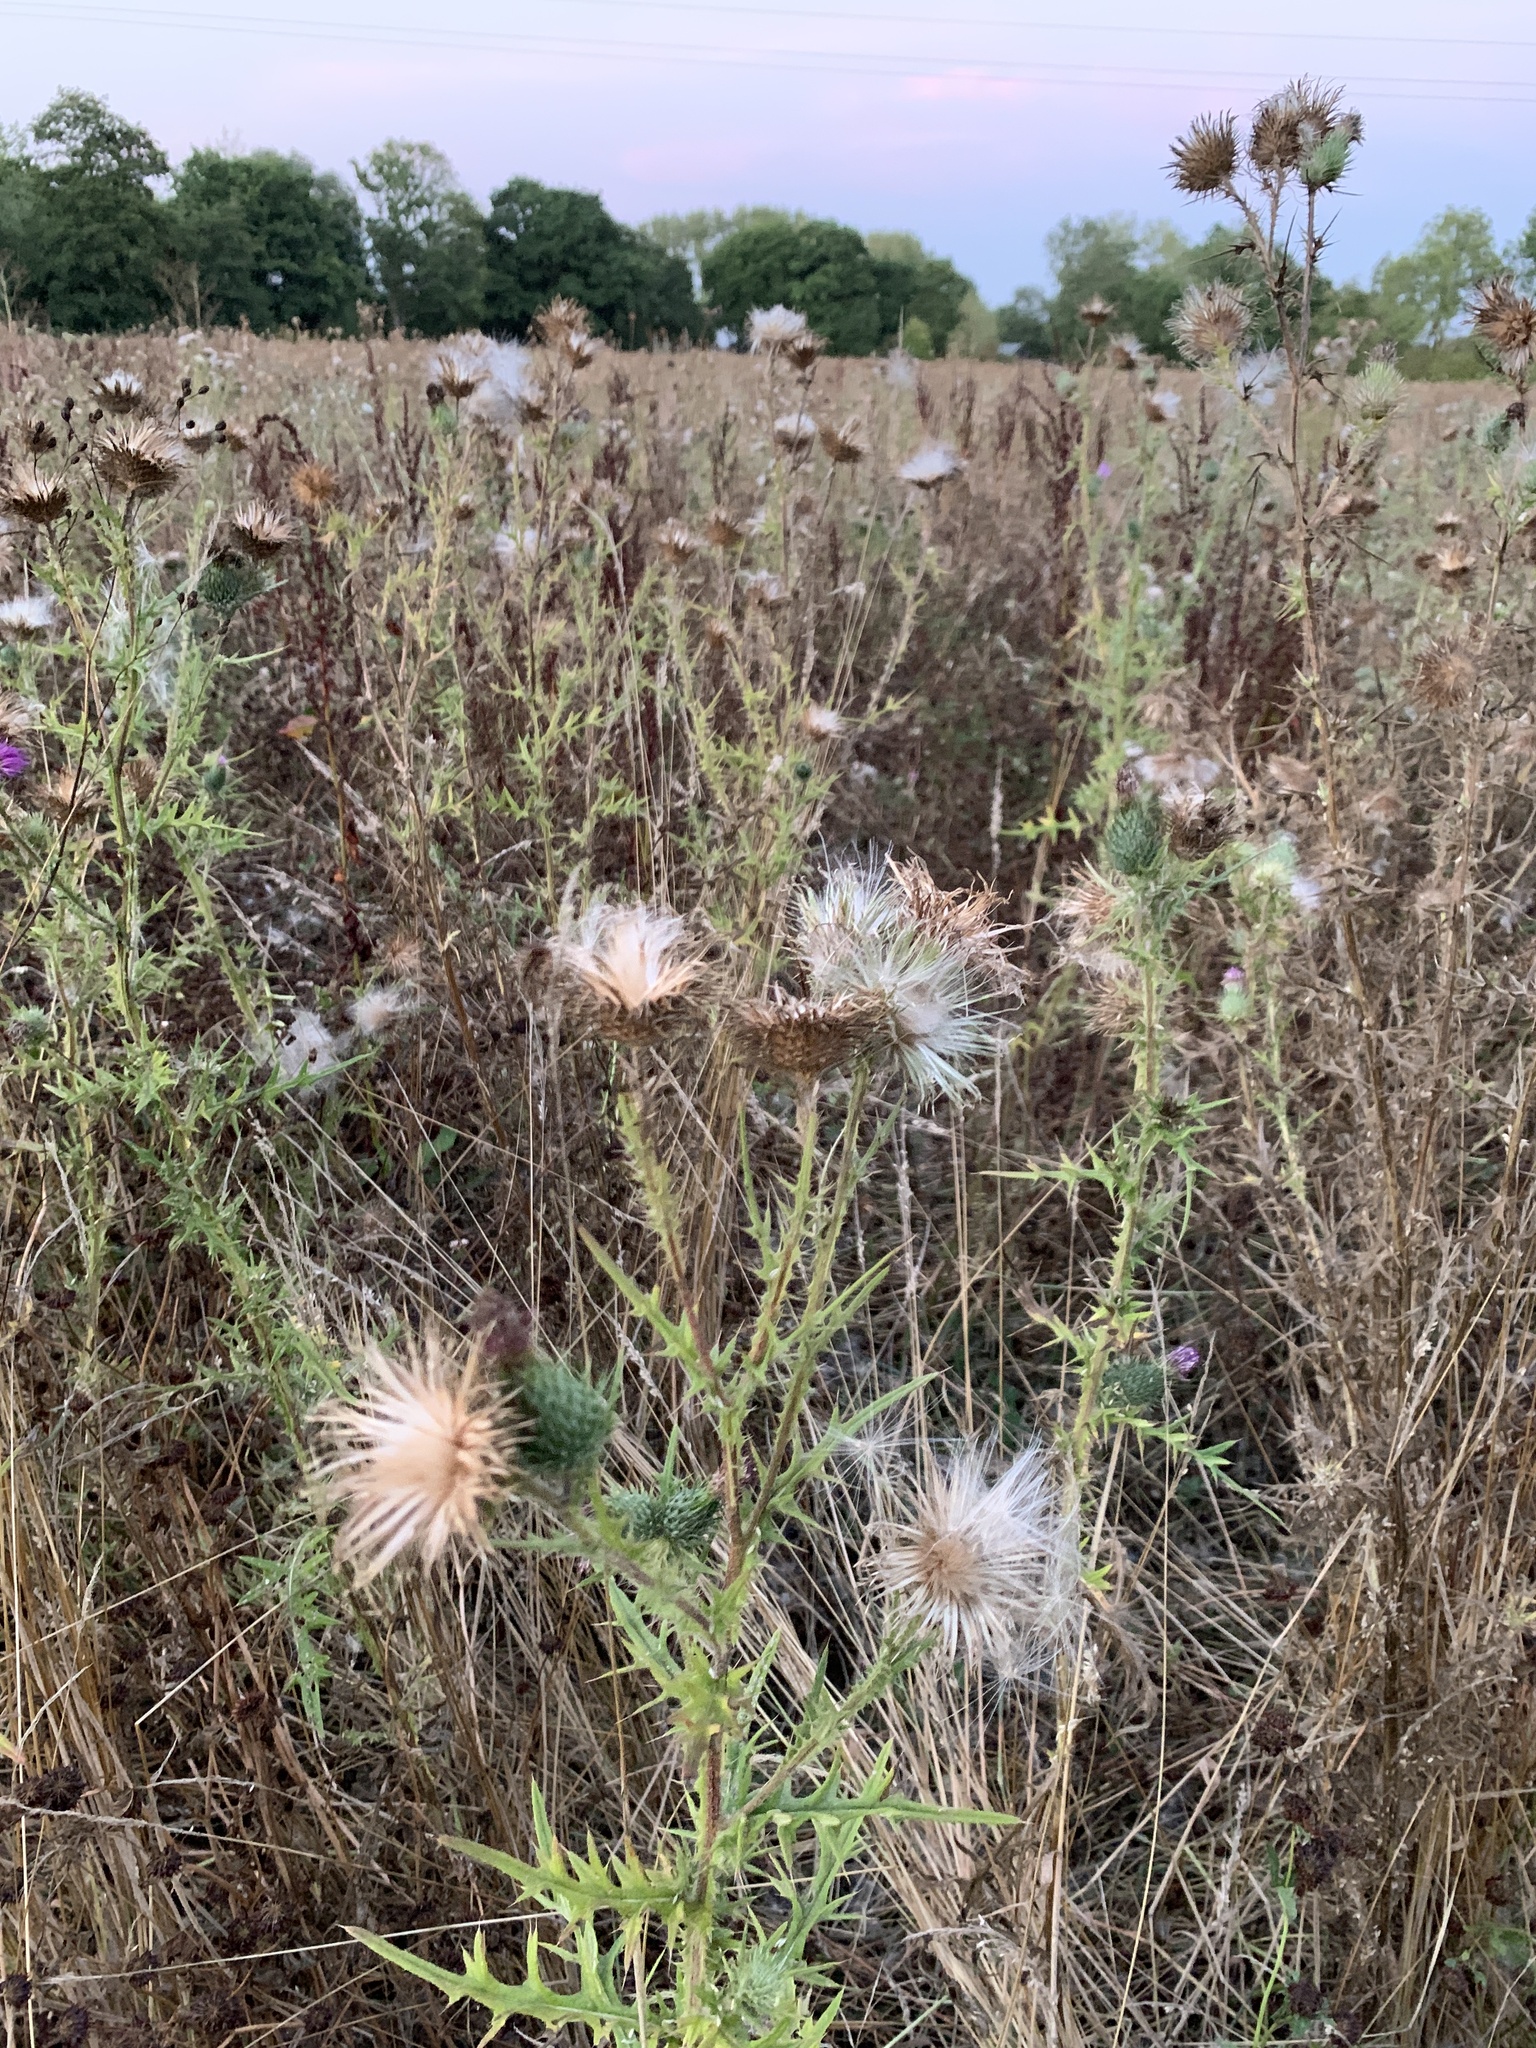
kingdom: Plantae
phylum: Tracheophyta
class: Magnoliopsida
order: Asterales
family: Asteraceae
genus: Cirsium
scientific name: Cirsium vulgare
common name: Bull thistle
